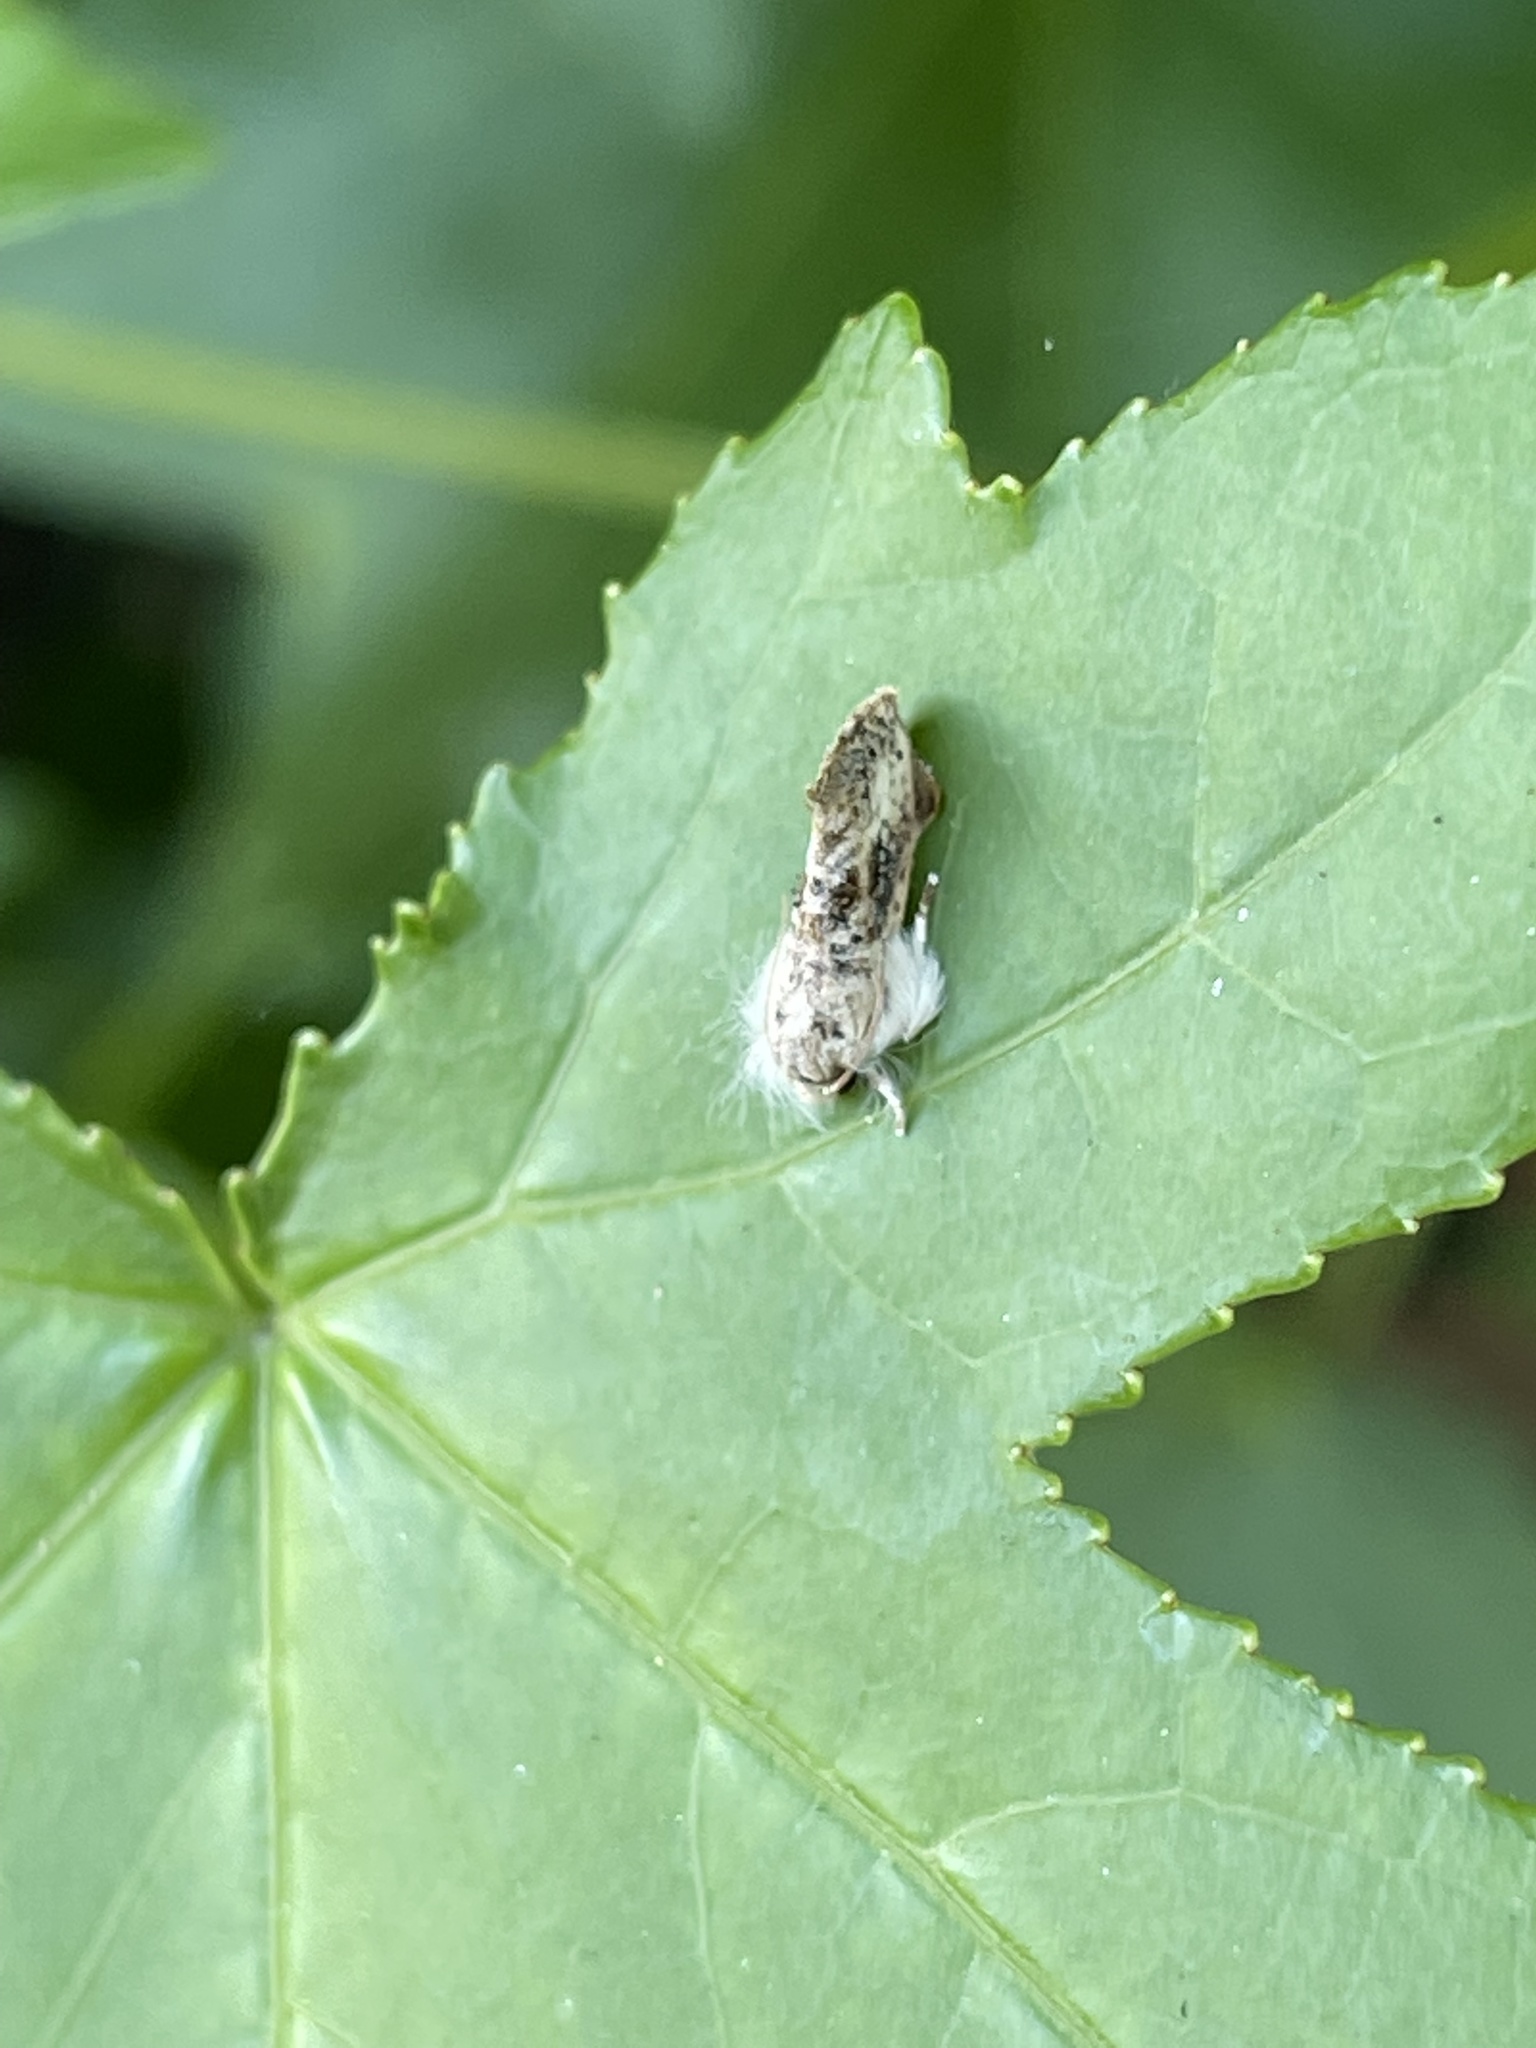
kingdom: Animalia
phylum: Arthropoda
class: Insecta
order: Lepidoptera
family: Tineidae
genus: Acrolophus
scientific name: Acrolophus mycetophagus
